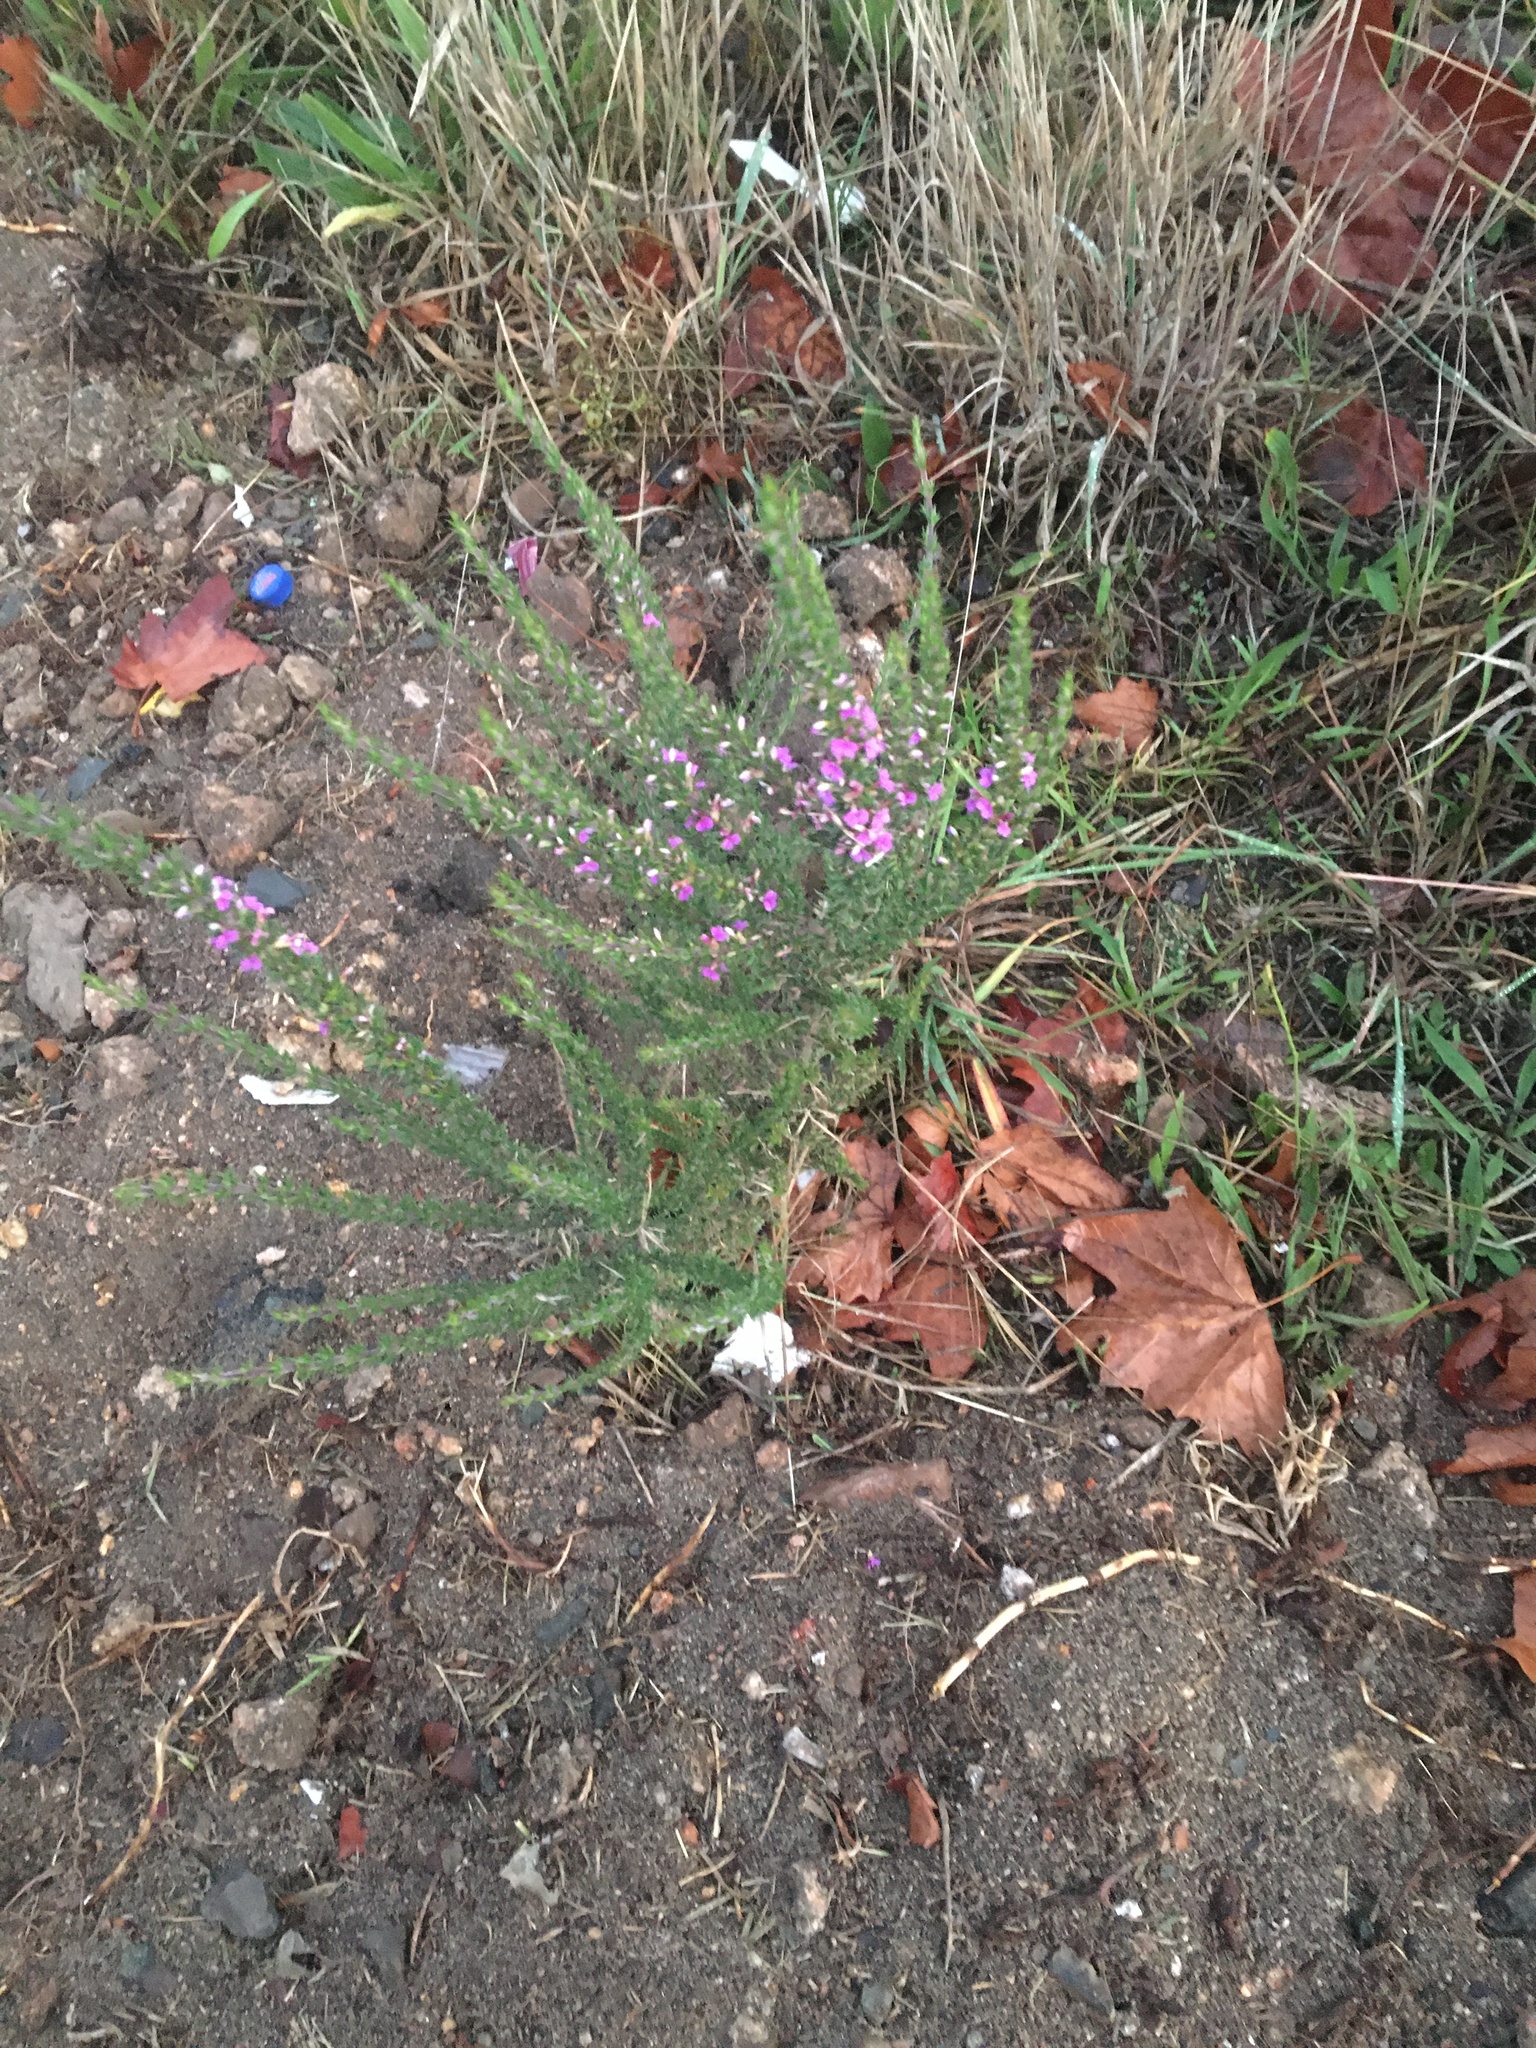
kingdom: Plantae
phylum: Tracheophyta
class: Magnoliopsida
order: Fabales
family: Polygalaceae
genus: Muraltia
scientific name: Muraltia heisteria
